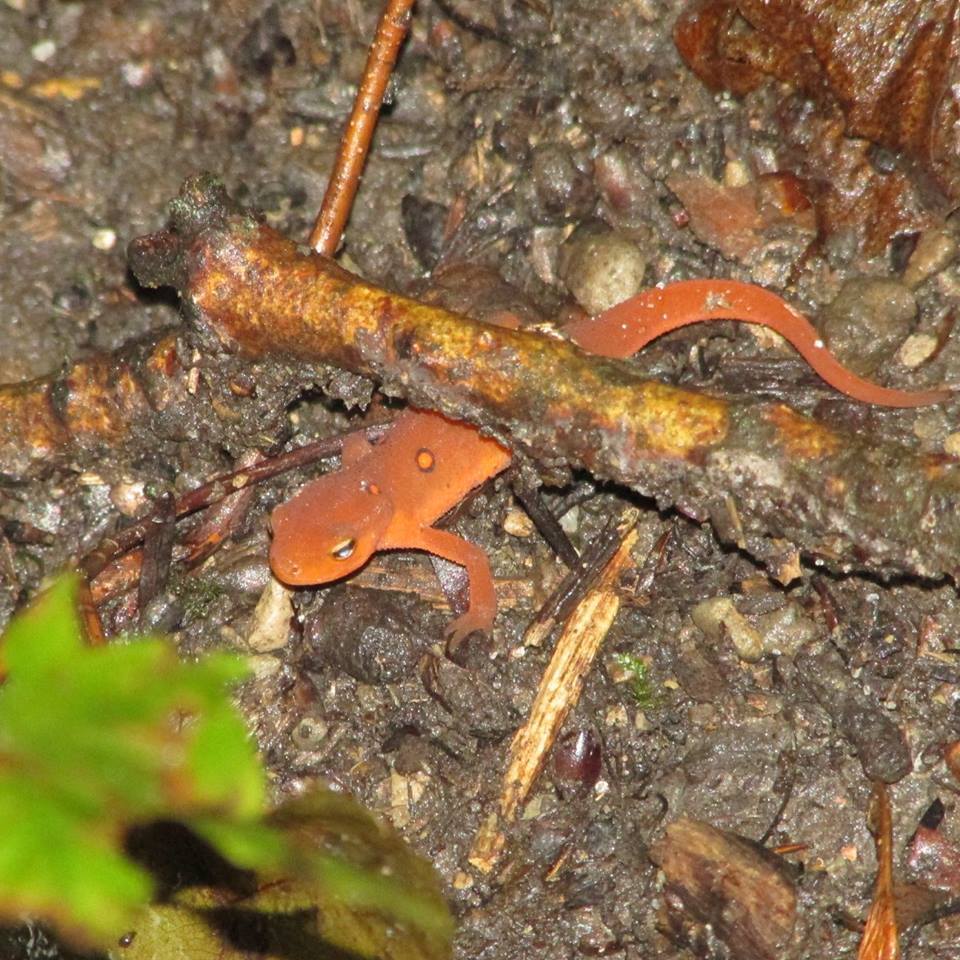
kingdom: Animalia
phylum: Chordata
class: Amphibia
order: Caudata
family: Salamandridae
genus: Notophthalmus
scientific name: Notophthalmus viridescens
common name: Eastern newt
